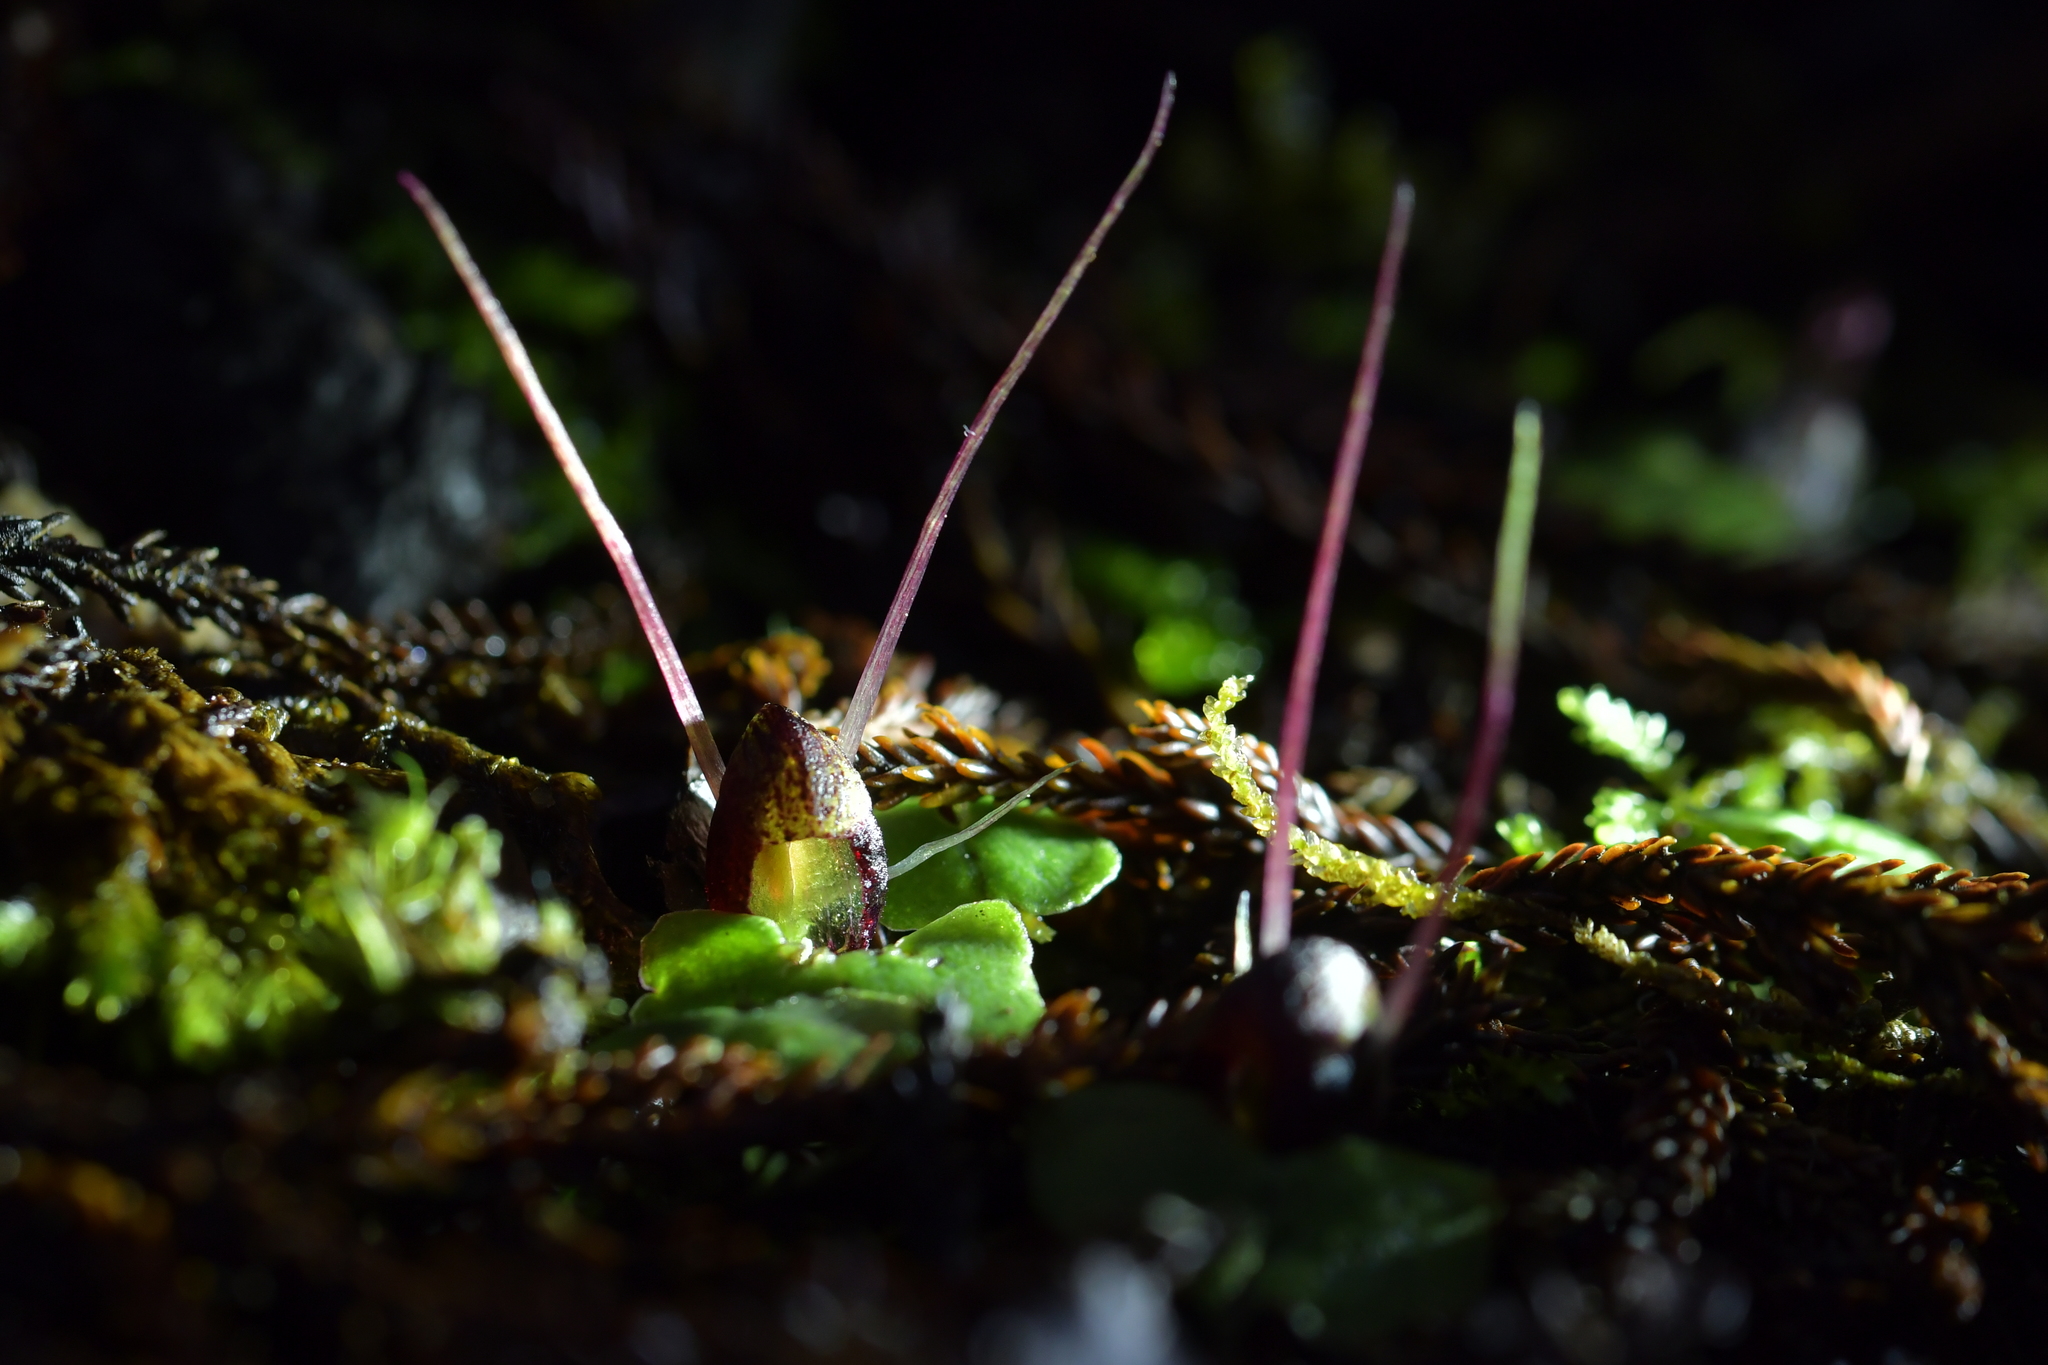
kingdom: Plantae
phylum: Tracheophyta
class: Liliopsida
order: Asparagales
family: Orchidaceae
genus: Corybas
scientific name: Corybas hypogaeus
